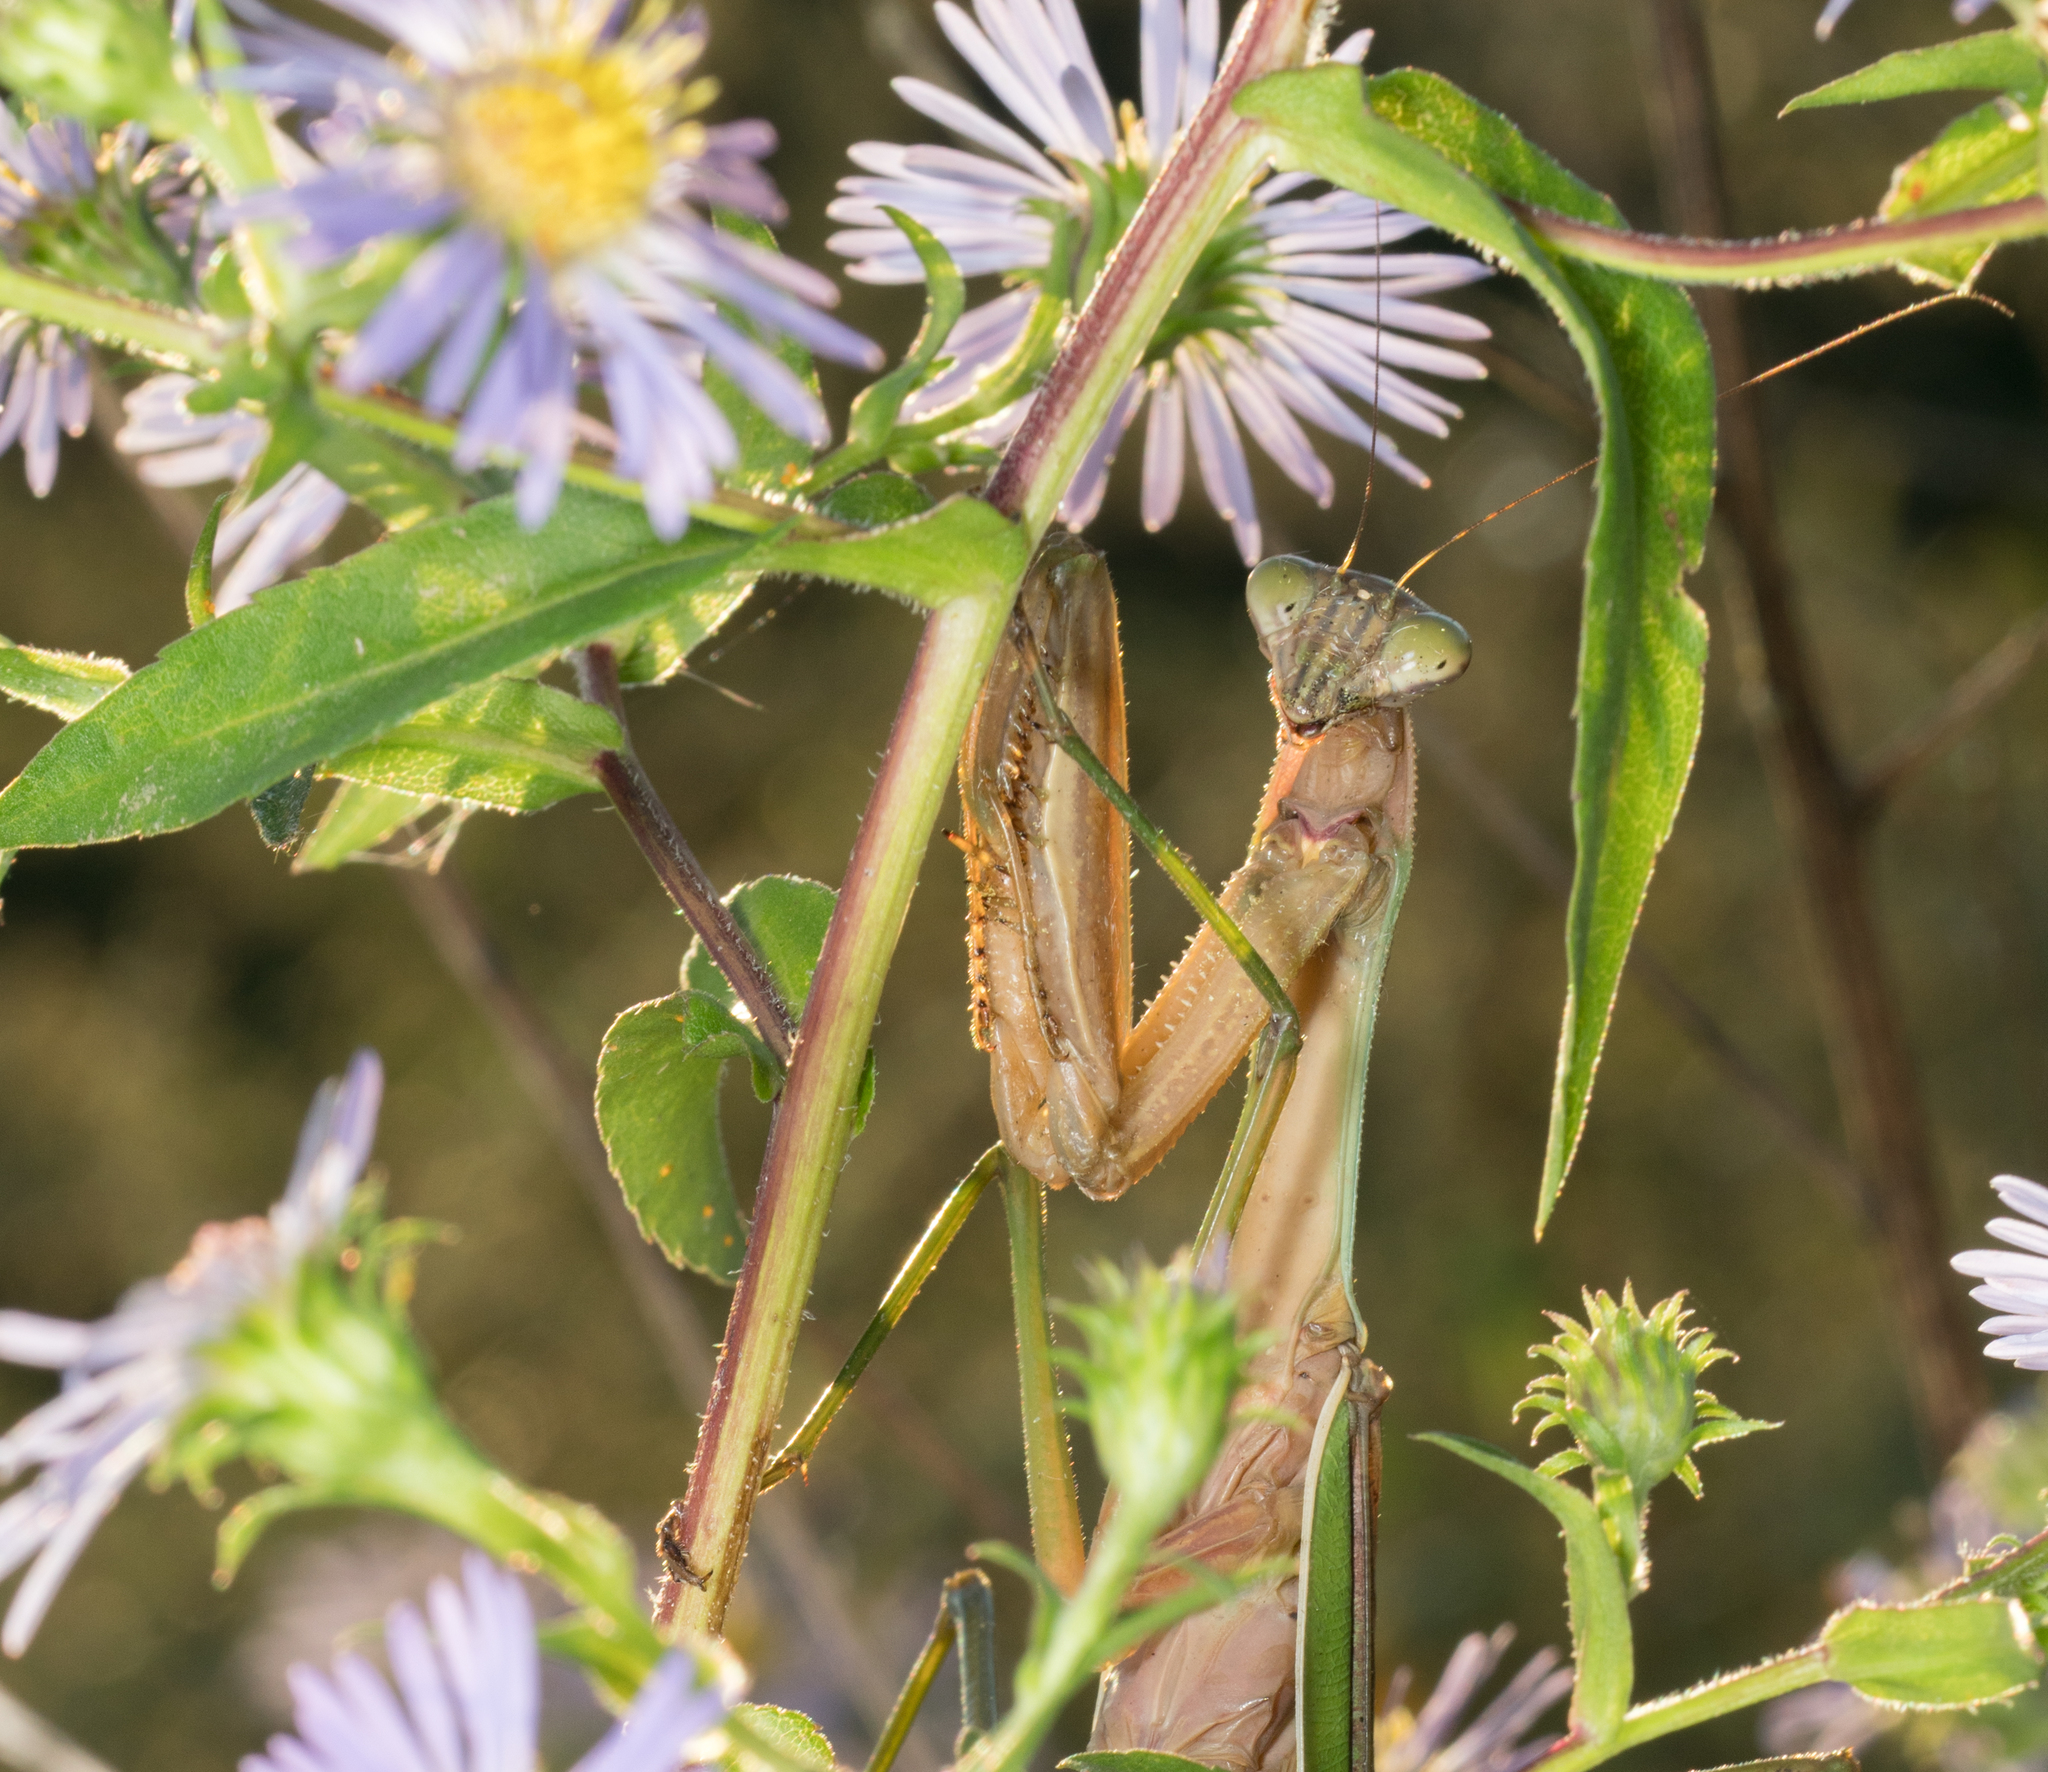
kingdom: Animalia
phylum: Arthropoda
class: Insecta
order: Mantodea
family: Mantidae
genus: Tenodera
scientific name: Tenodera sinensis
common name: Chinese mantis
